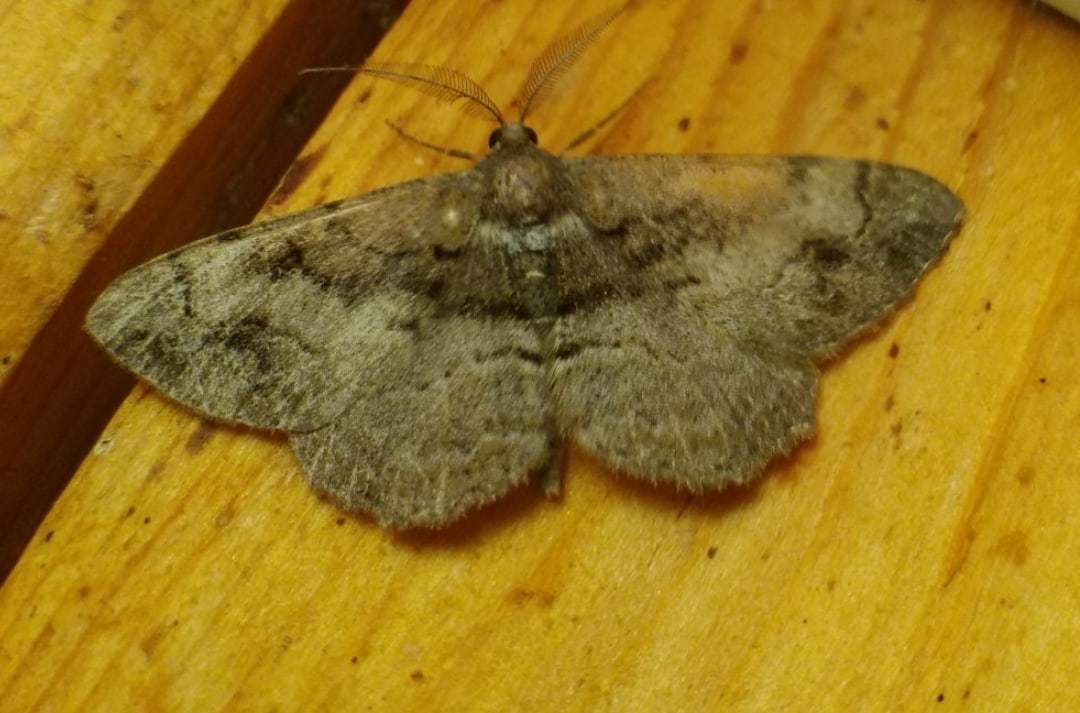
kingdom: Animalia
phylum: Arthropoda
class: Insecta
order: Lepidoptera
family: Geometridae
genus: Alcis
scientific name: Alcis deversata
